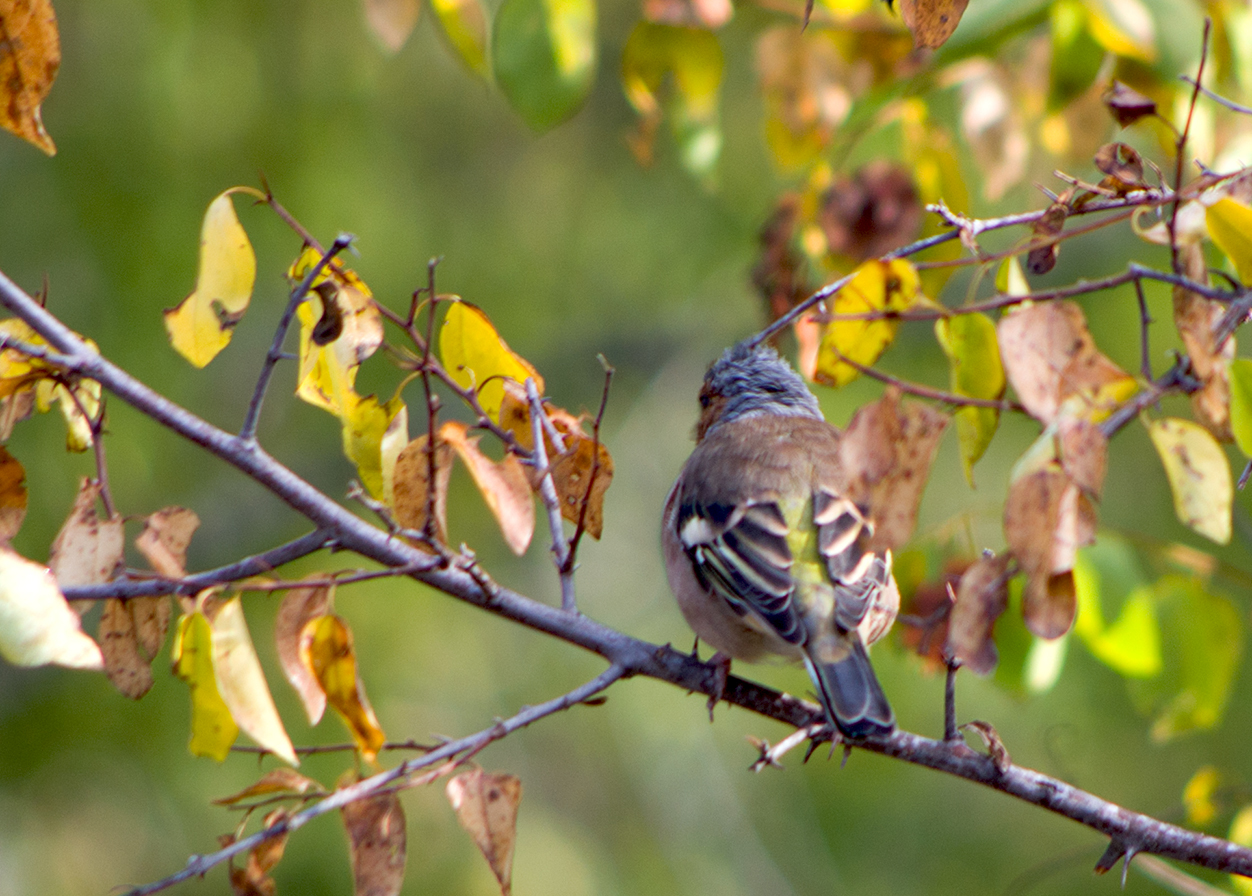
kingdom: Animalia
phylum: Chordata
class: Aves
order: Passeriformes
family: Fringillidae
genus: Fringilla
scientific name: Fringilla coelebs
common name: Common chaffinch
